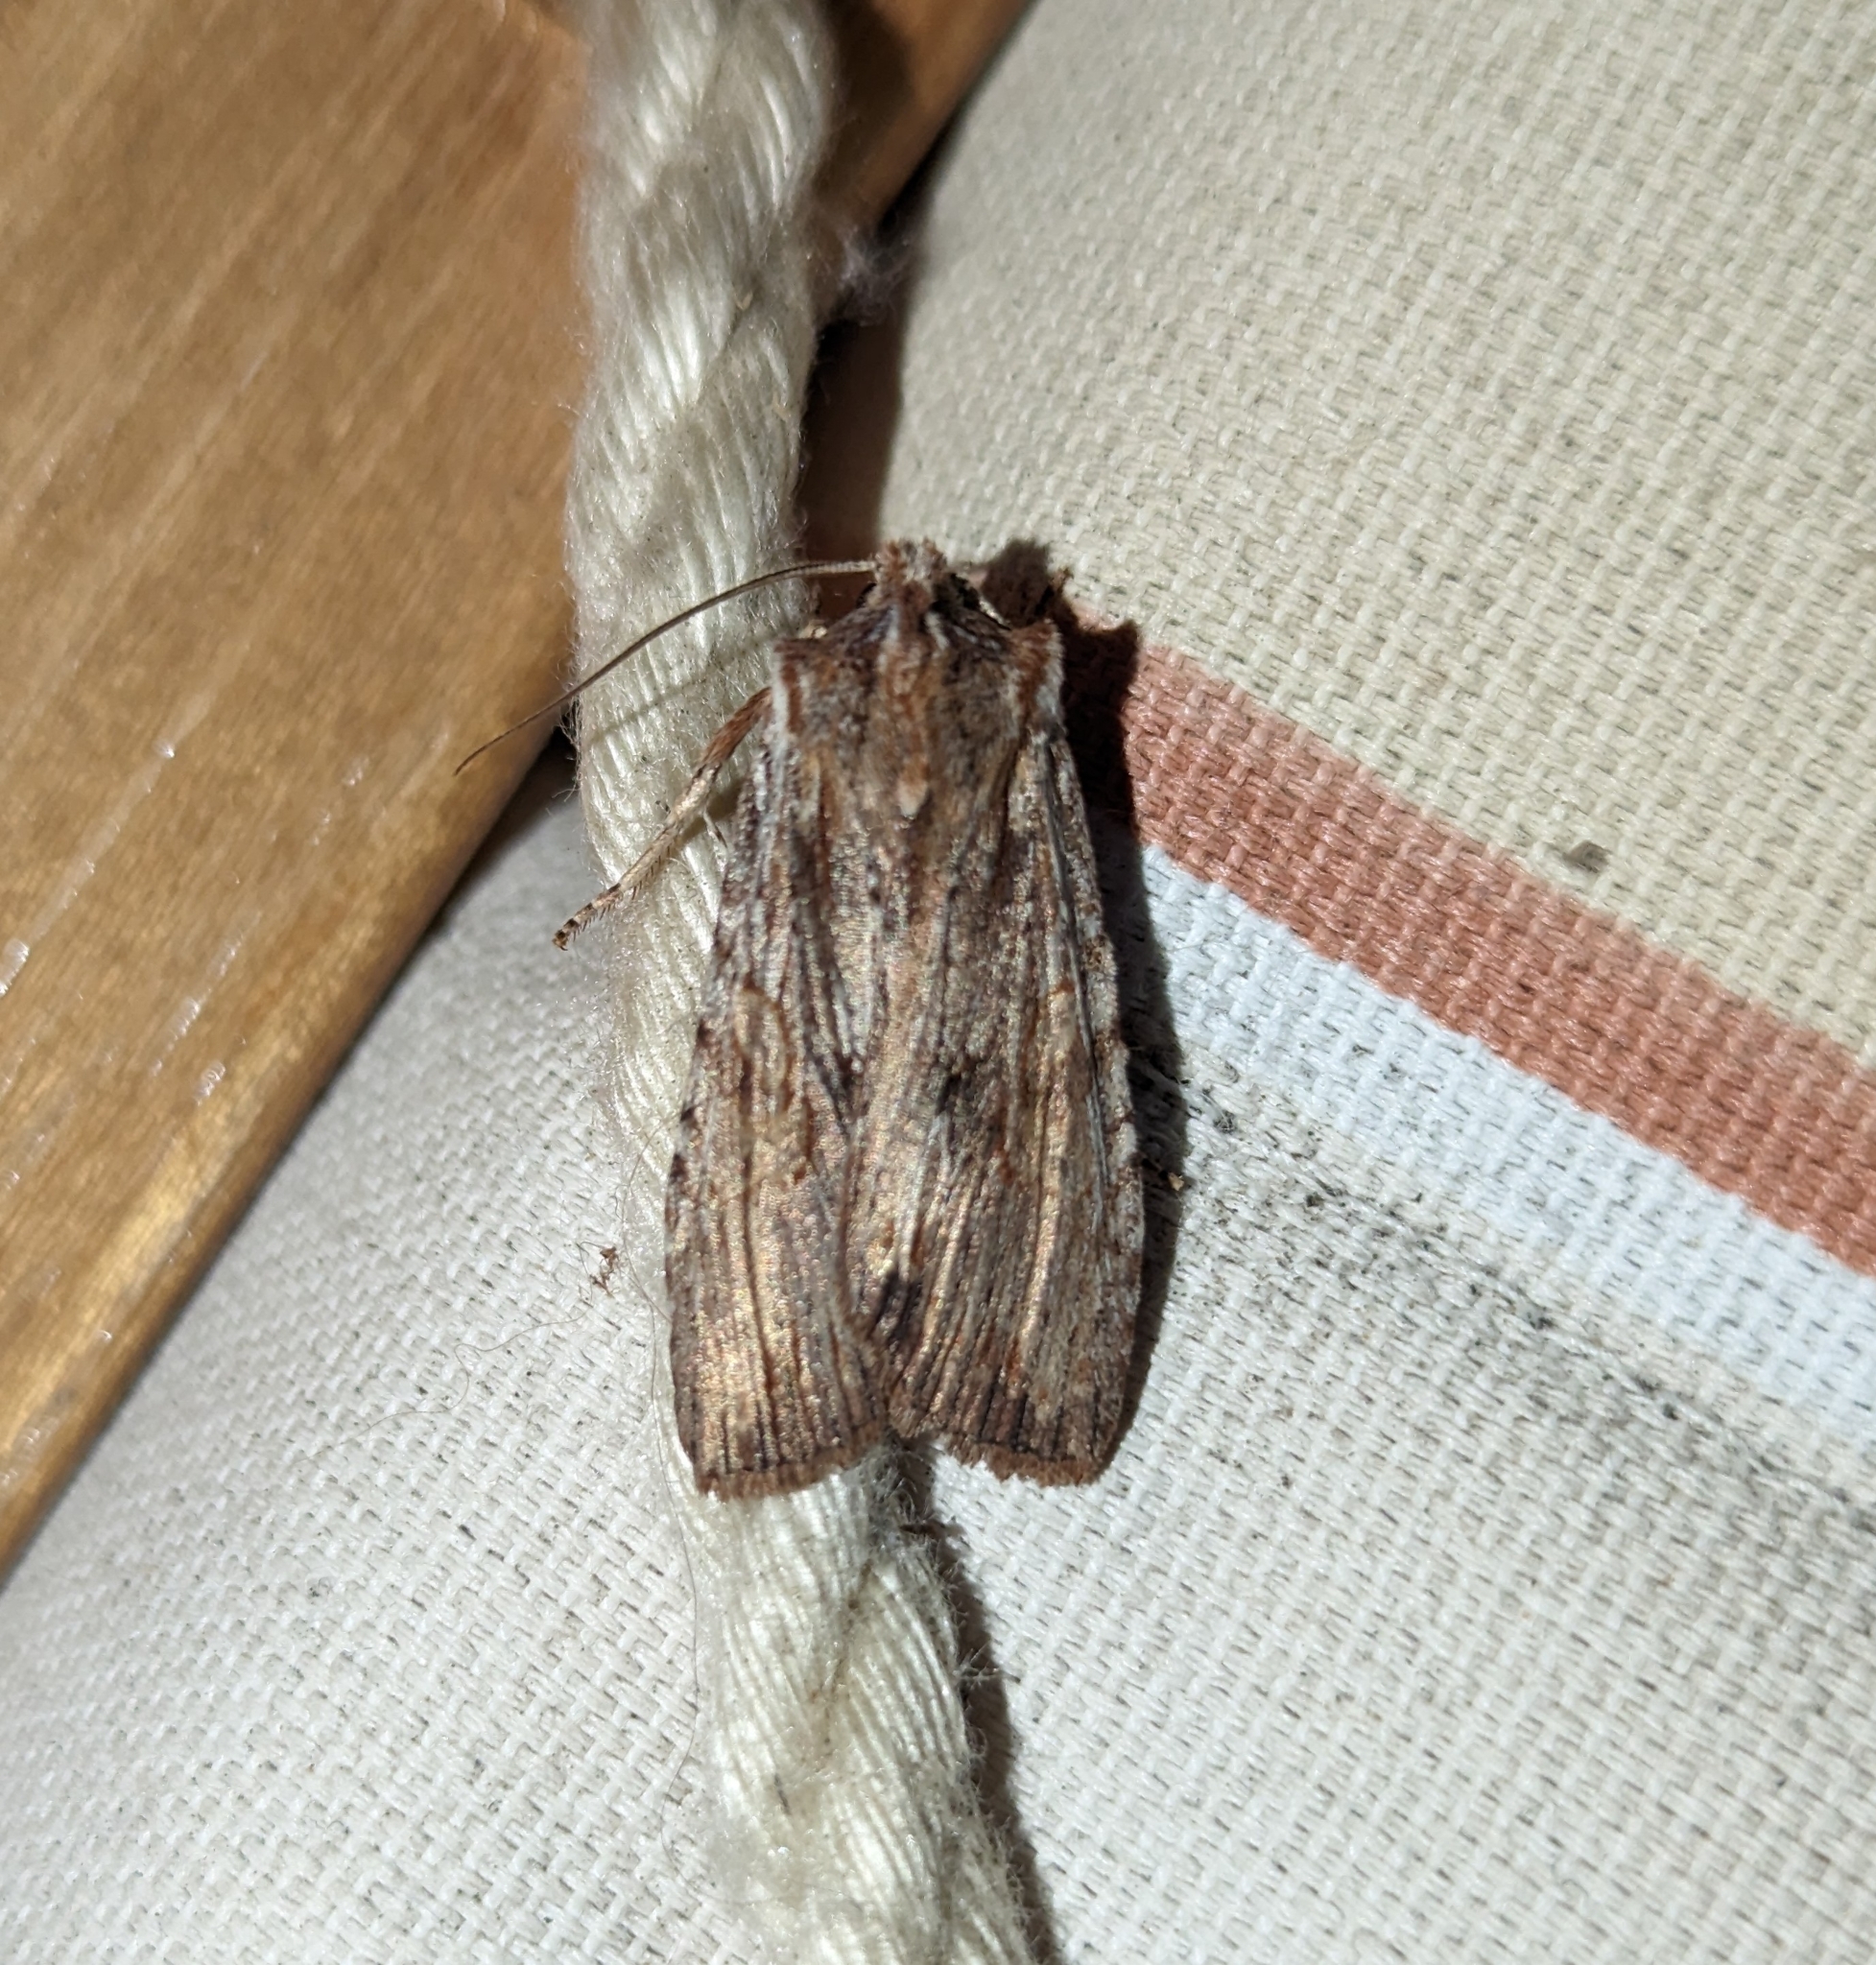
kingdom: Animalia
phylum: Arthropoda
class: Insecta
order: Lepidoptera
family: Noctuidae
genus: Lithophane
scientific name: Lithophane petulca
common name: Wanton pinion
